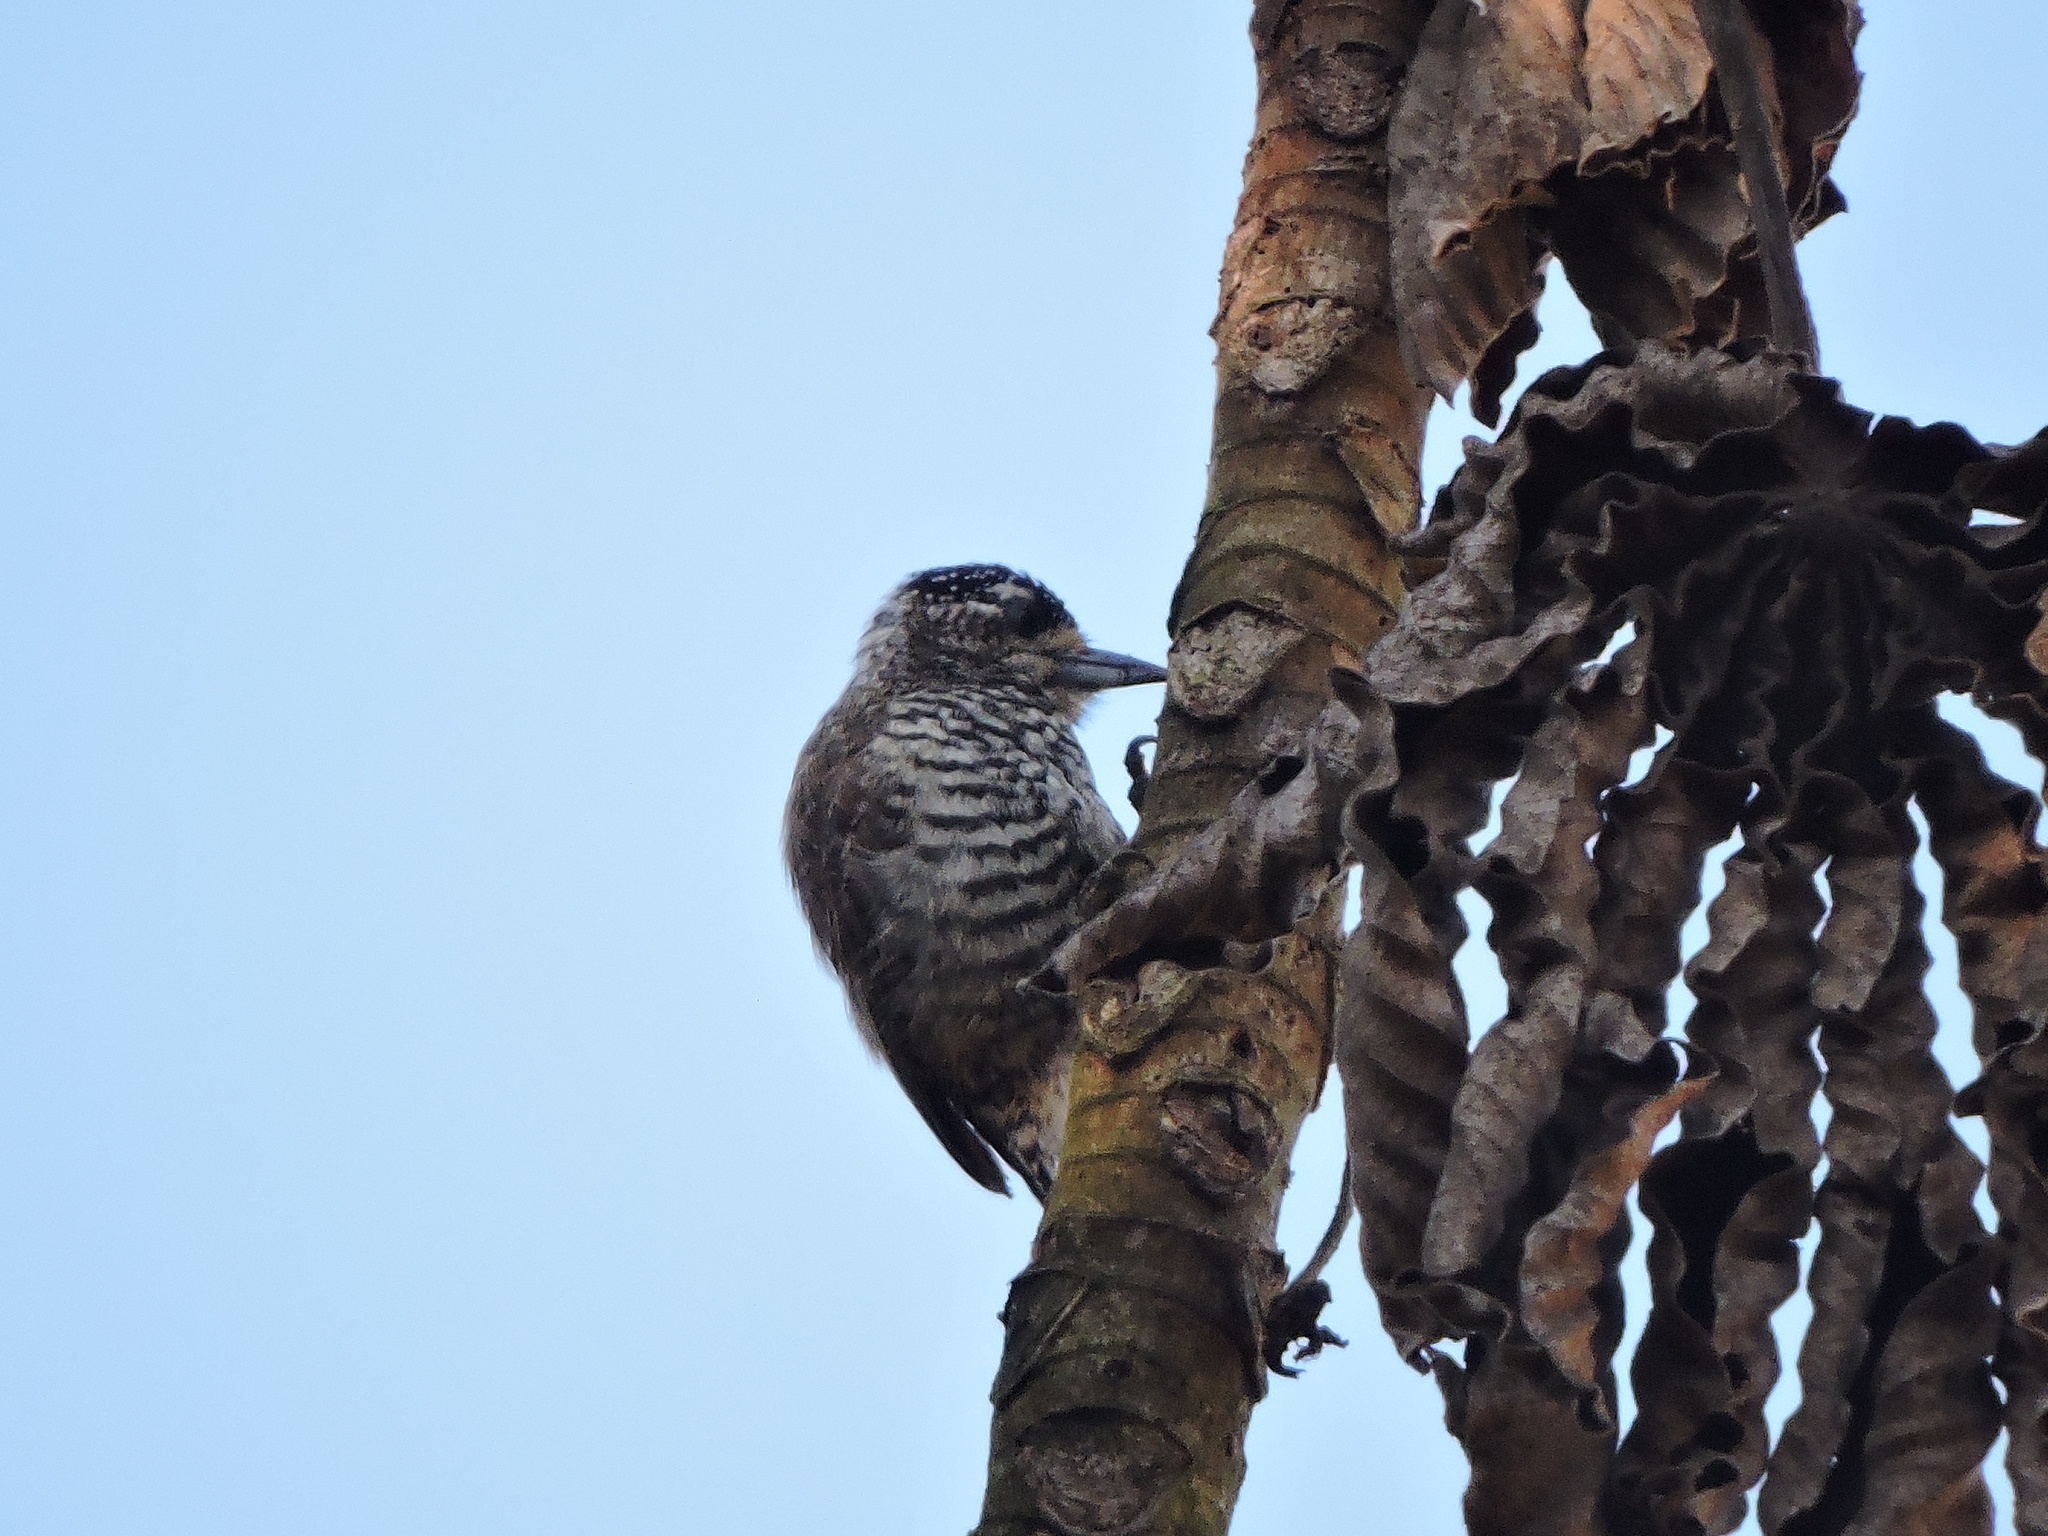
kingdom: Animalia
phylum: Chordata
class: Aves
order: Piciformes
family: Picidae
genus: Picumnus
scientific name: Picumnus cirratus
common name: White-barred piculet
